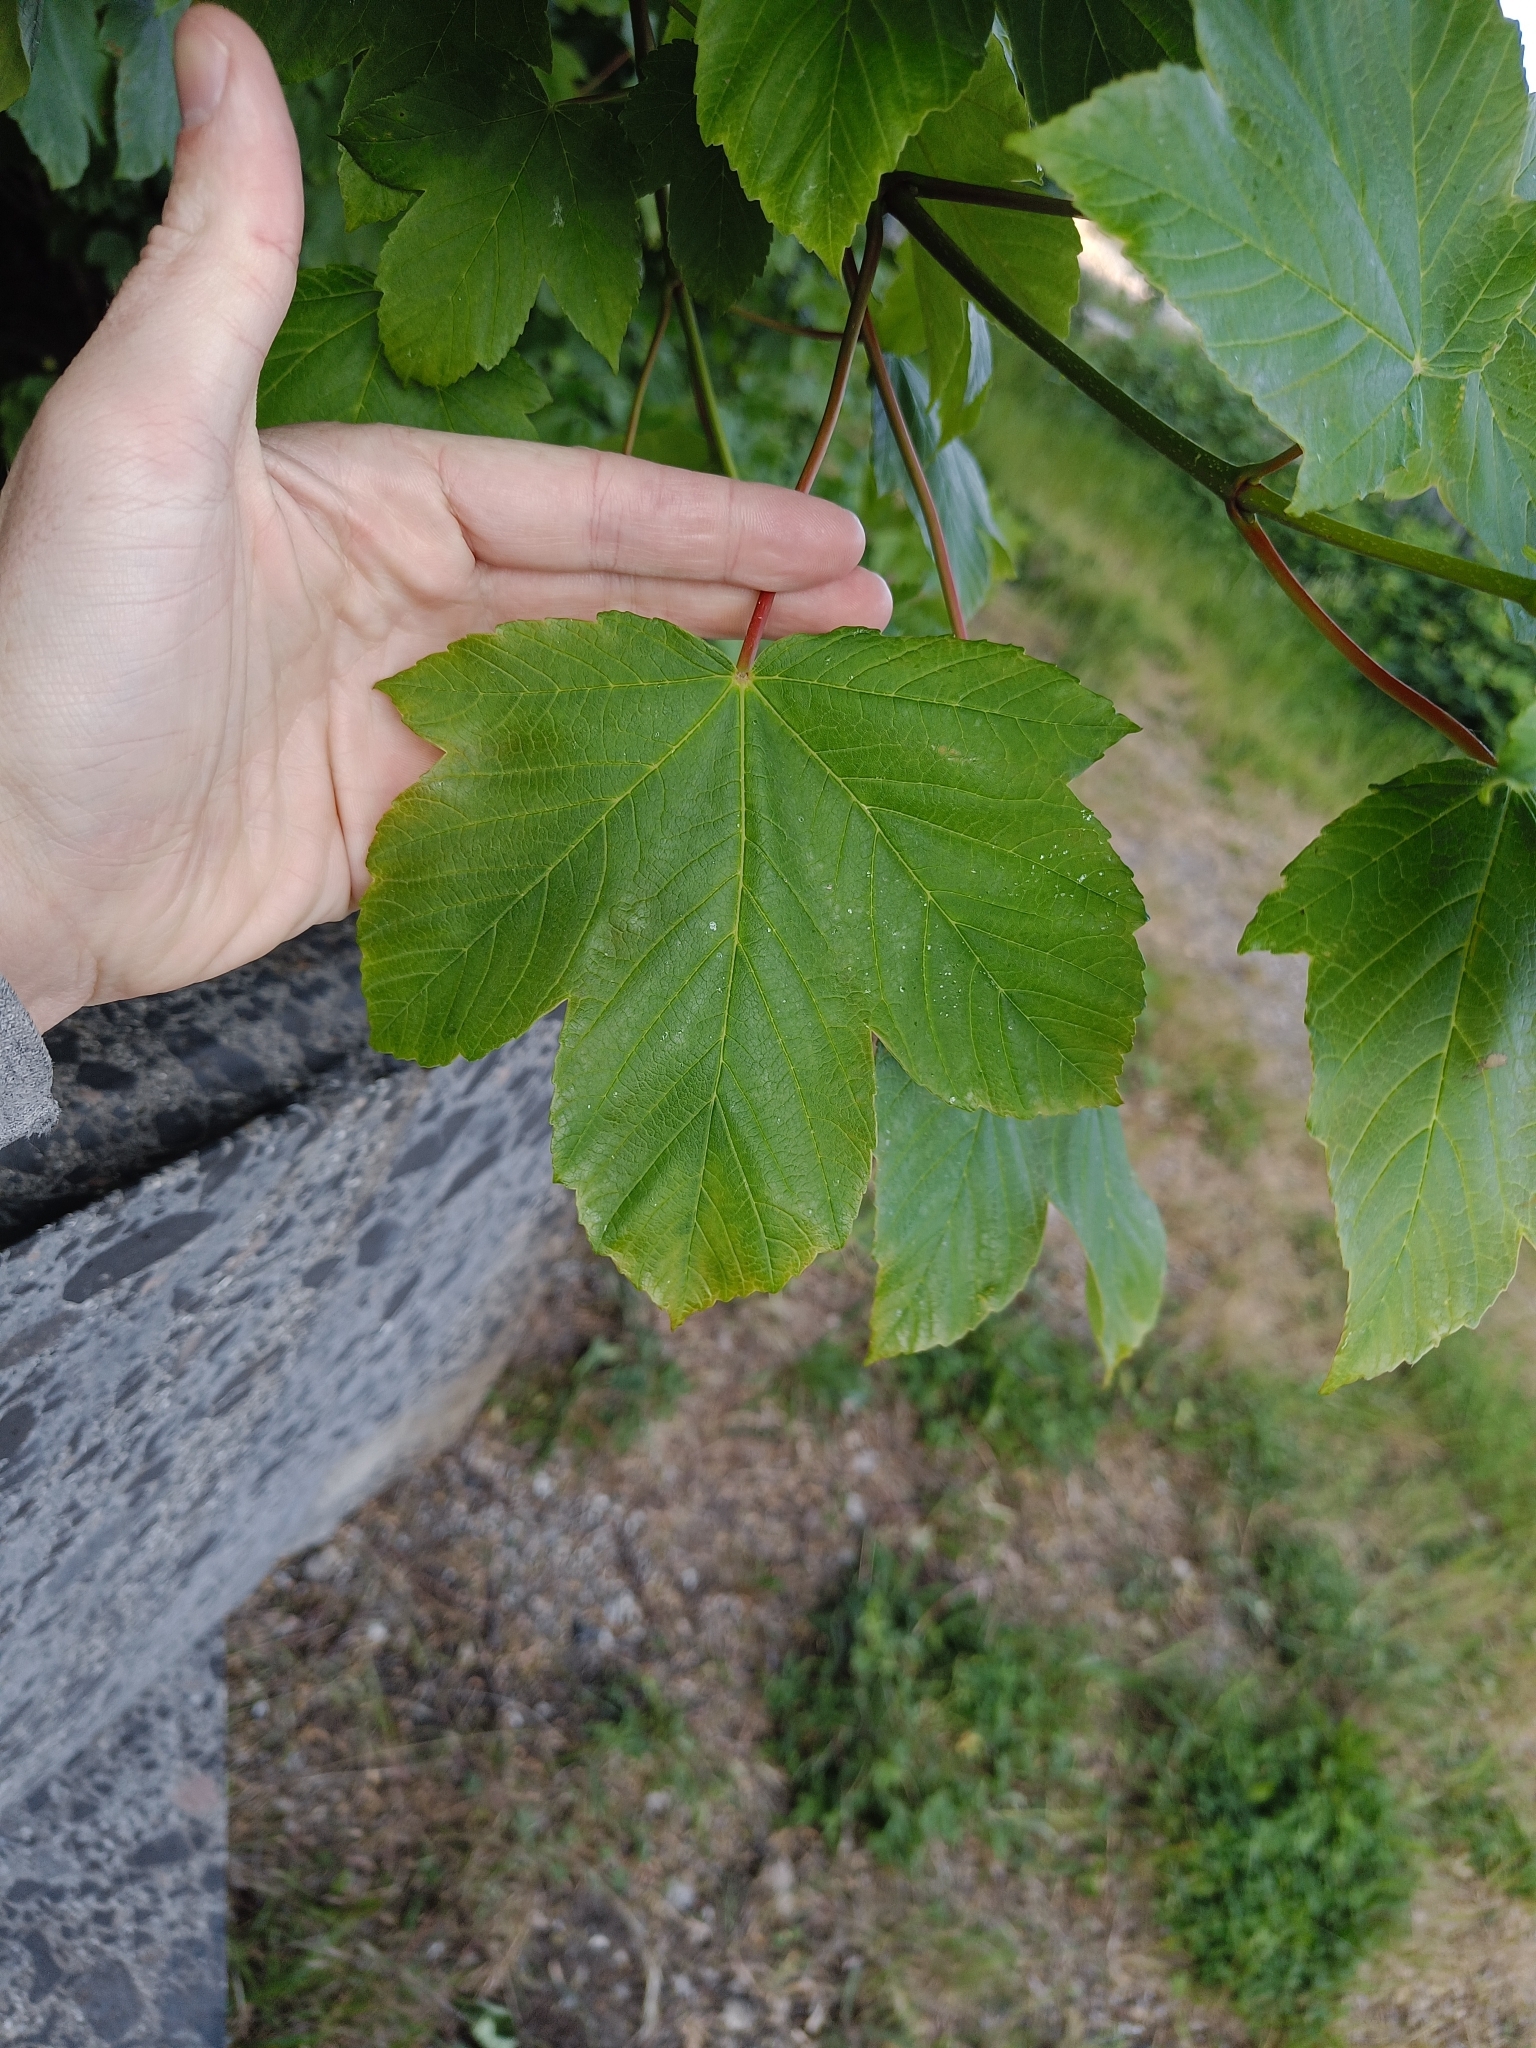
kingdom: Plantae
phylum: Tracheophyta
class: Magnoliopsida
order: Sapindales
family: Sapindaceae
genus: Acer
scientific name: Acer pseudoplatanus
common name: Sycamore
